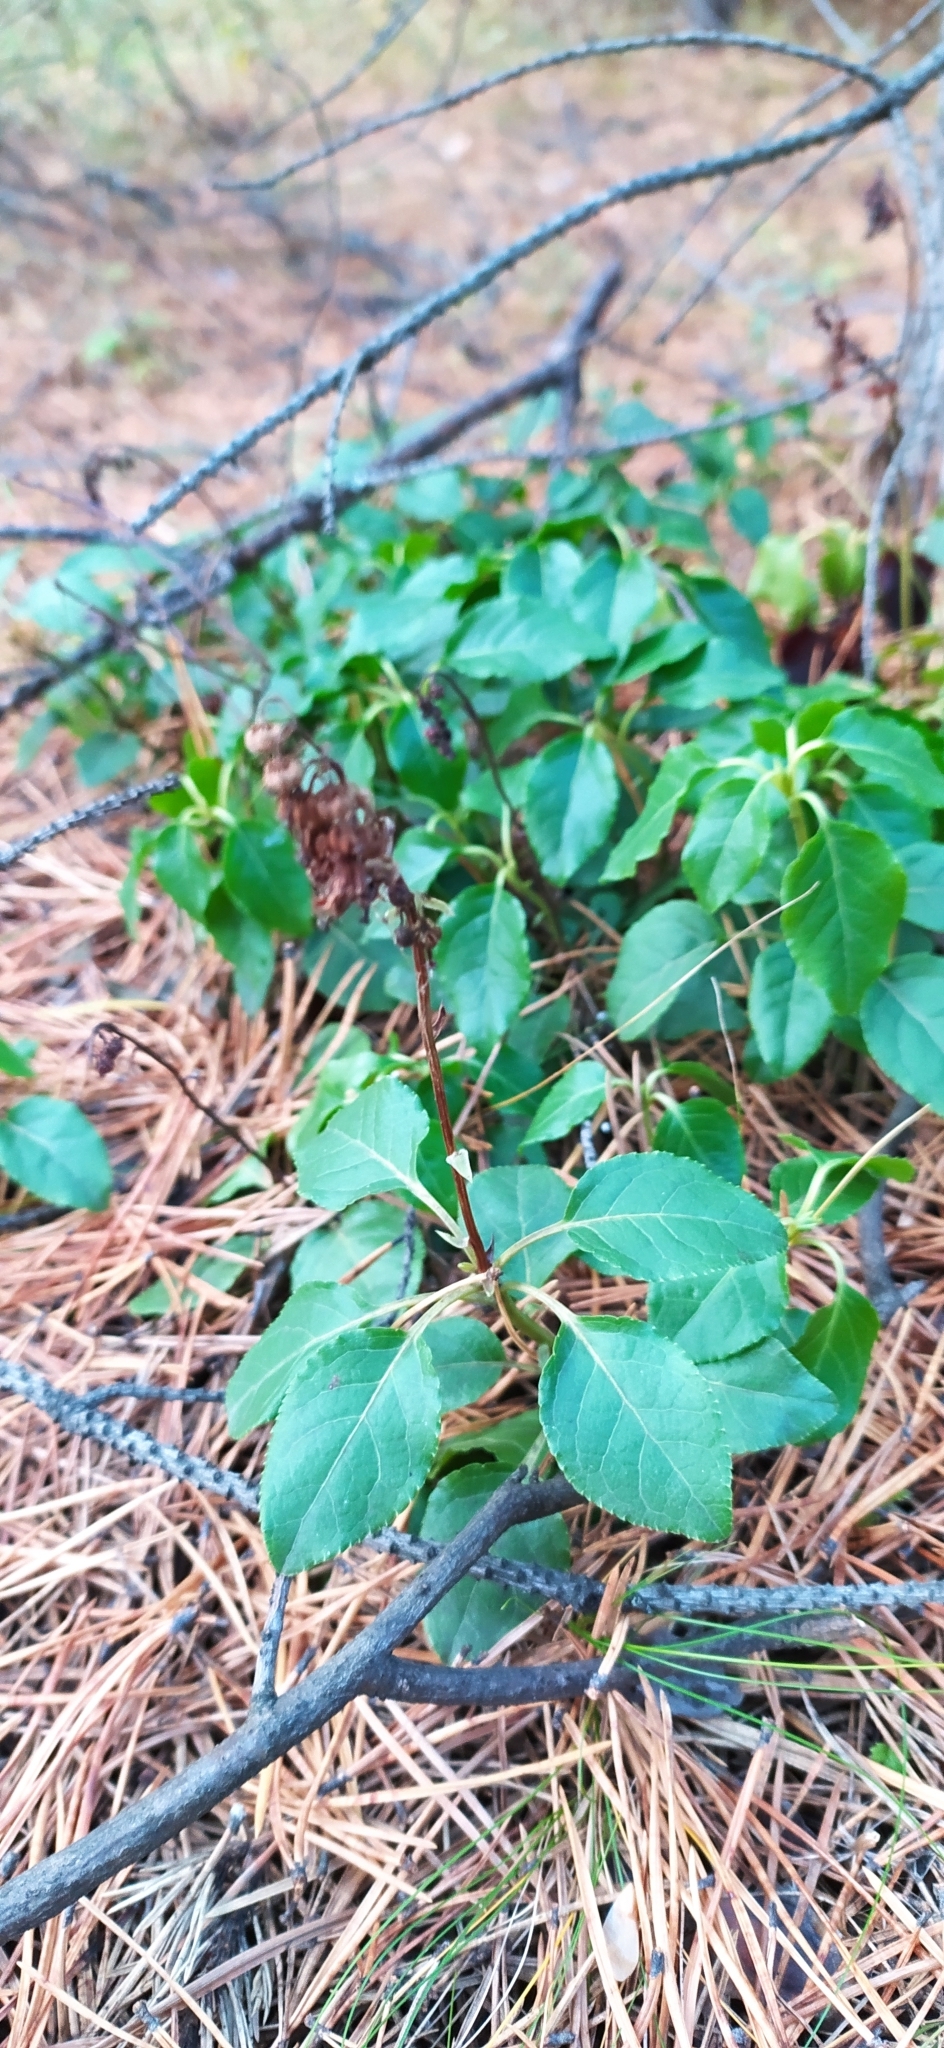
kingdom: Plantae
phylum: Tracheophyta
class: Magnoliopsida
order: Ericales
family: Ericaceae
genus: Orthilia
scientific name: Orthilia secunda
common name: One-sided orthilia
